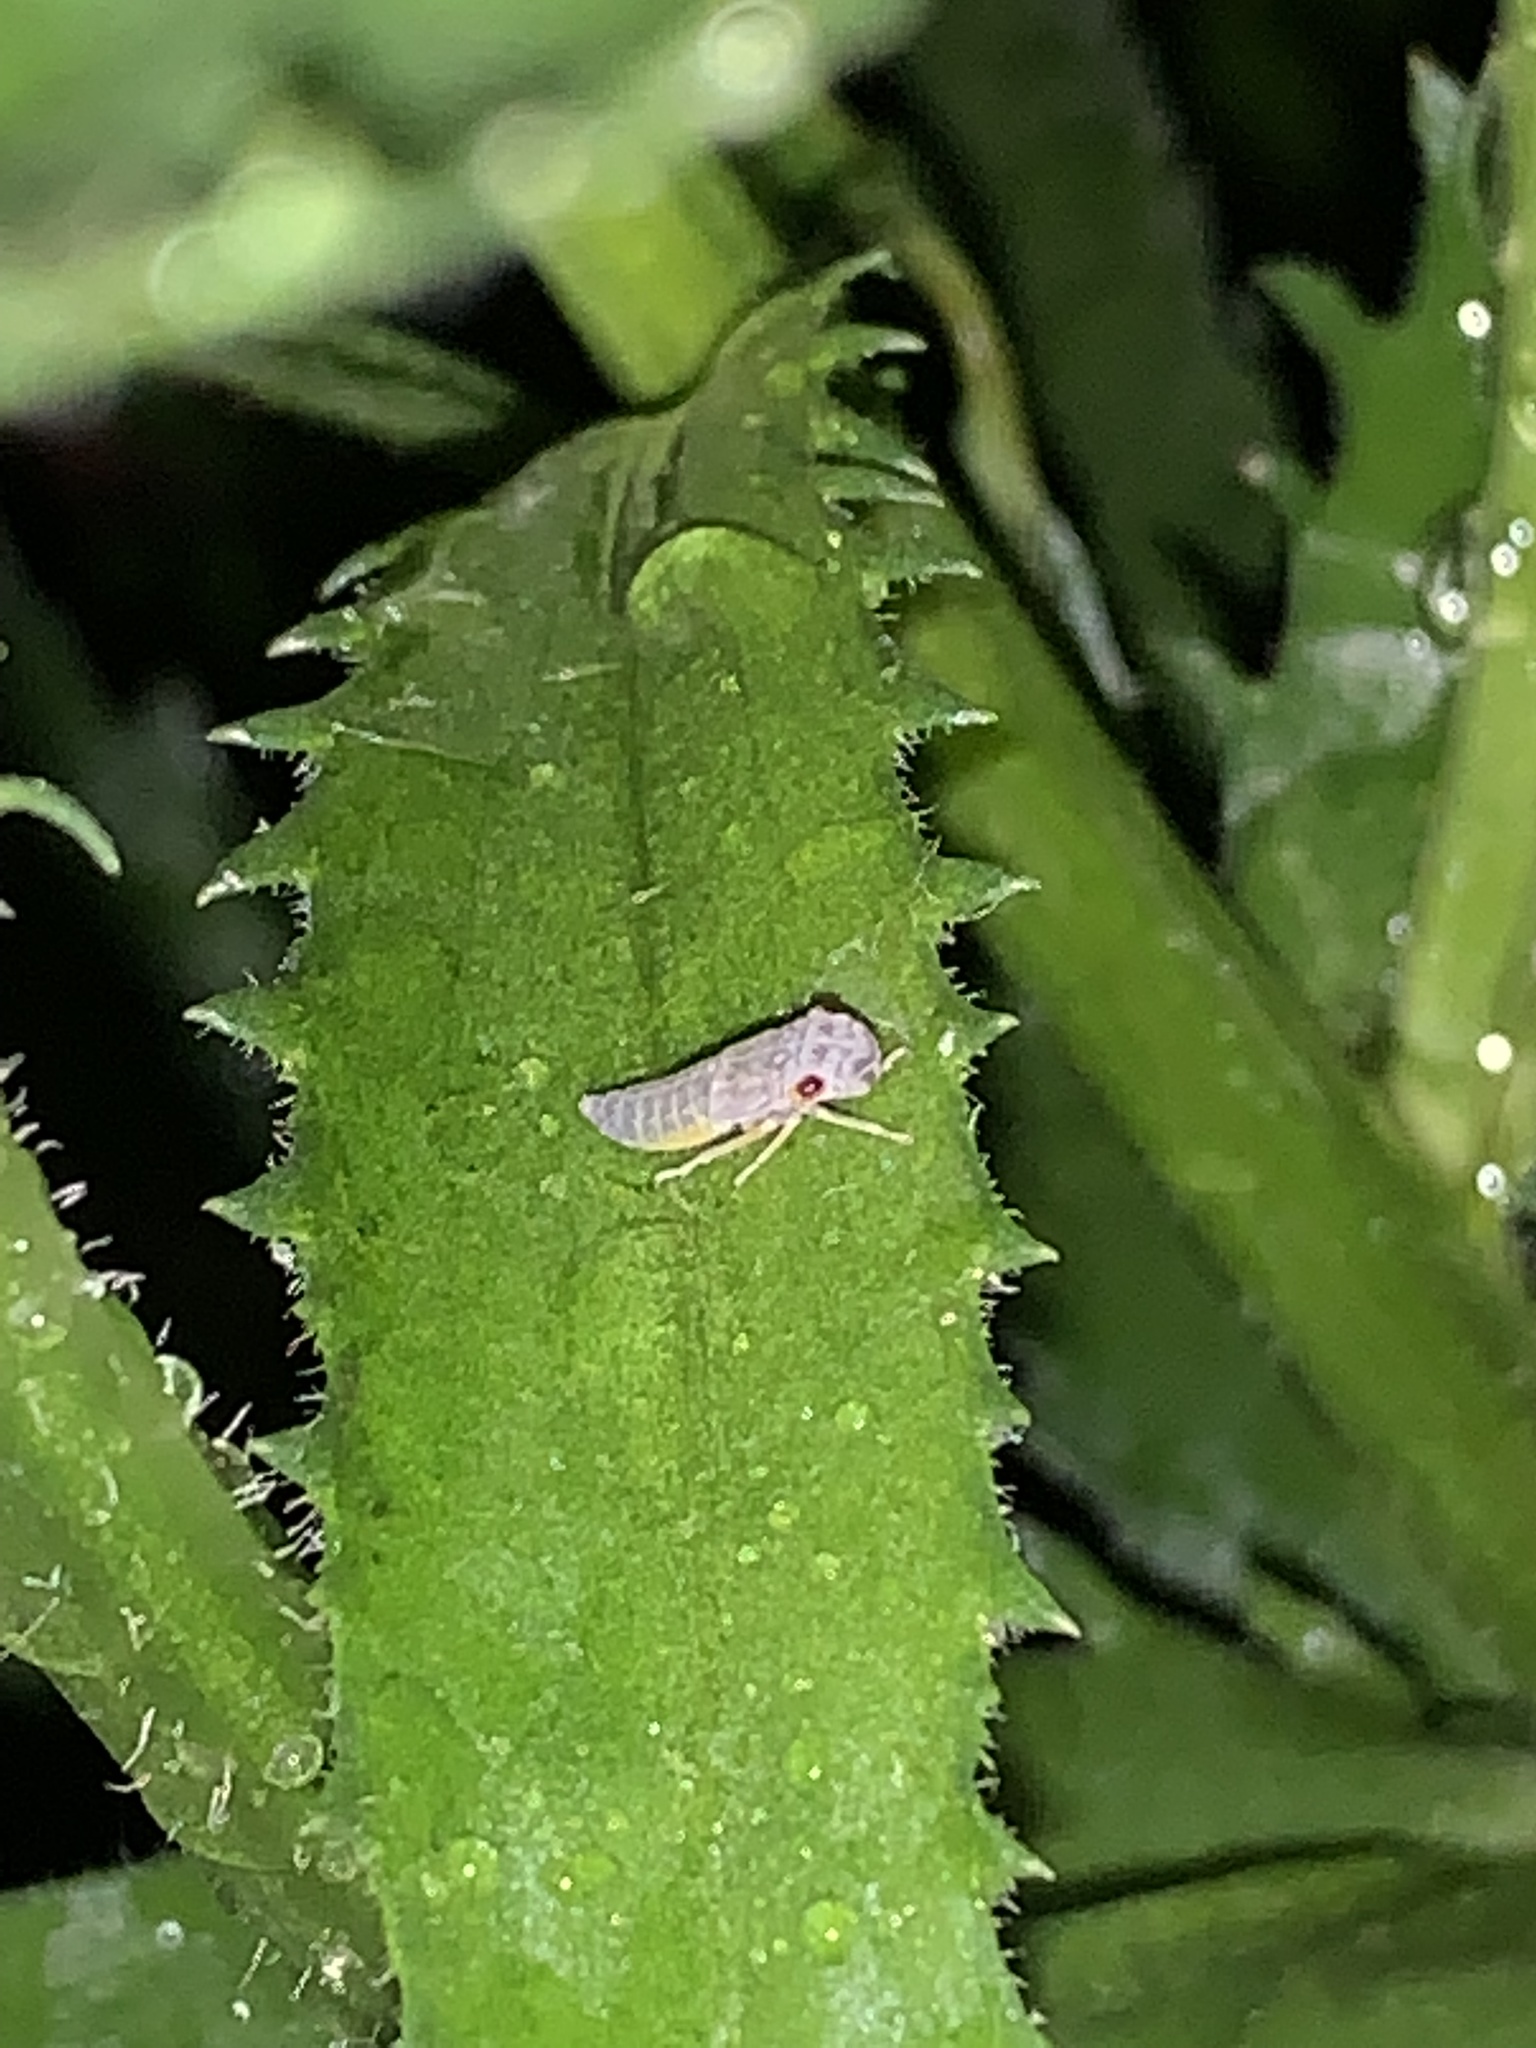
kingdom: Animalia
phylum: Arthropoda
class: Insecta
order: Hemiptera
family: Cicadellidae
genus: Oncometopia
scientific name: Oncometopia orbona
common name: Broad-headed sharpshooter
